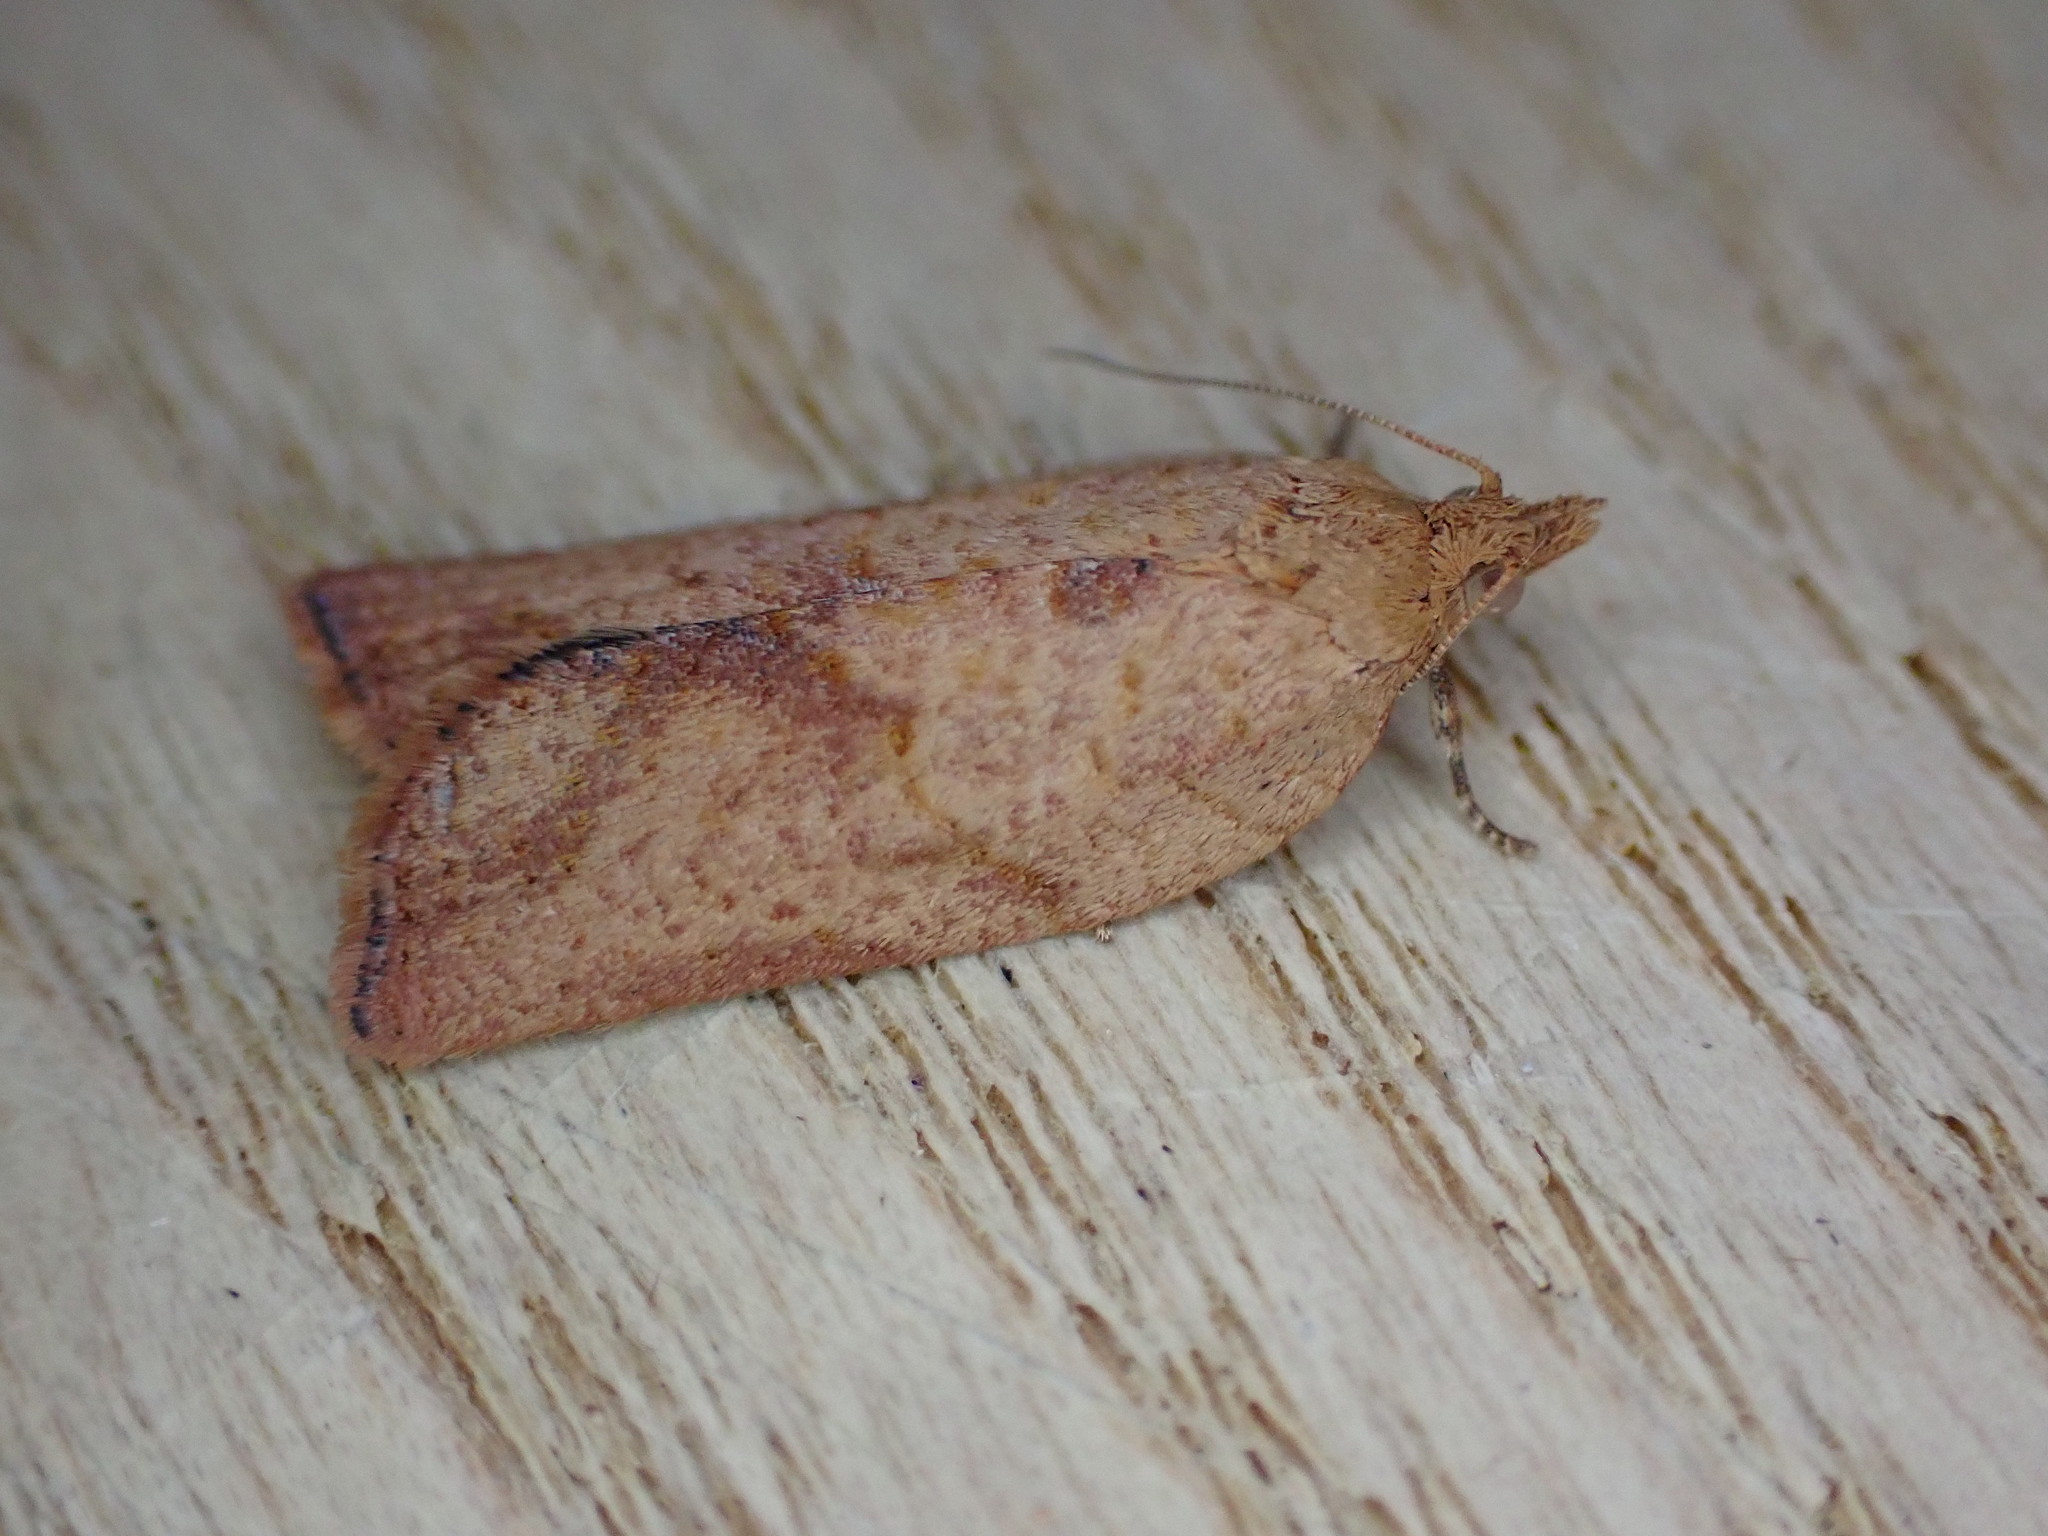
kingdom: Animalia
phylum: Arthropoda
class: Insecta
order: Lepidoptera
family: Tortricidae
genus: Epiphyas
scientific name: Epiphyas postvittana
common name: Light brown apple moth
